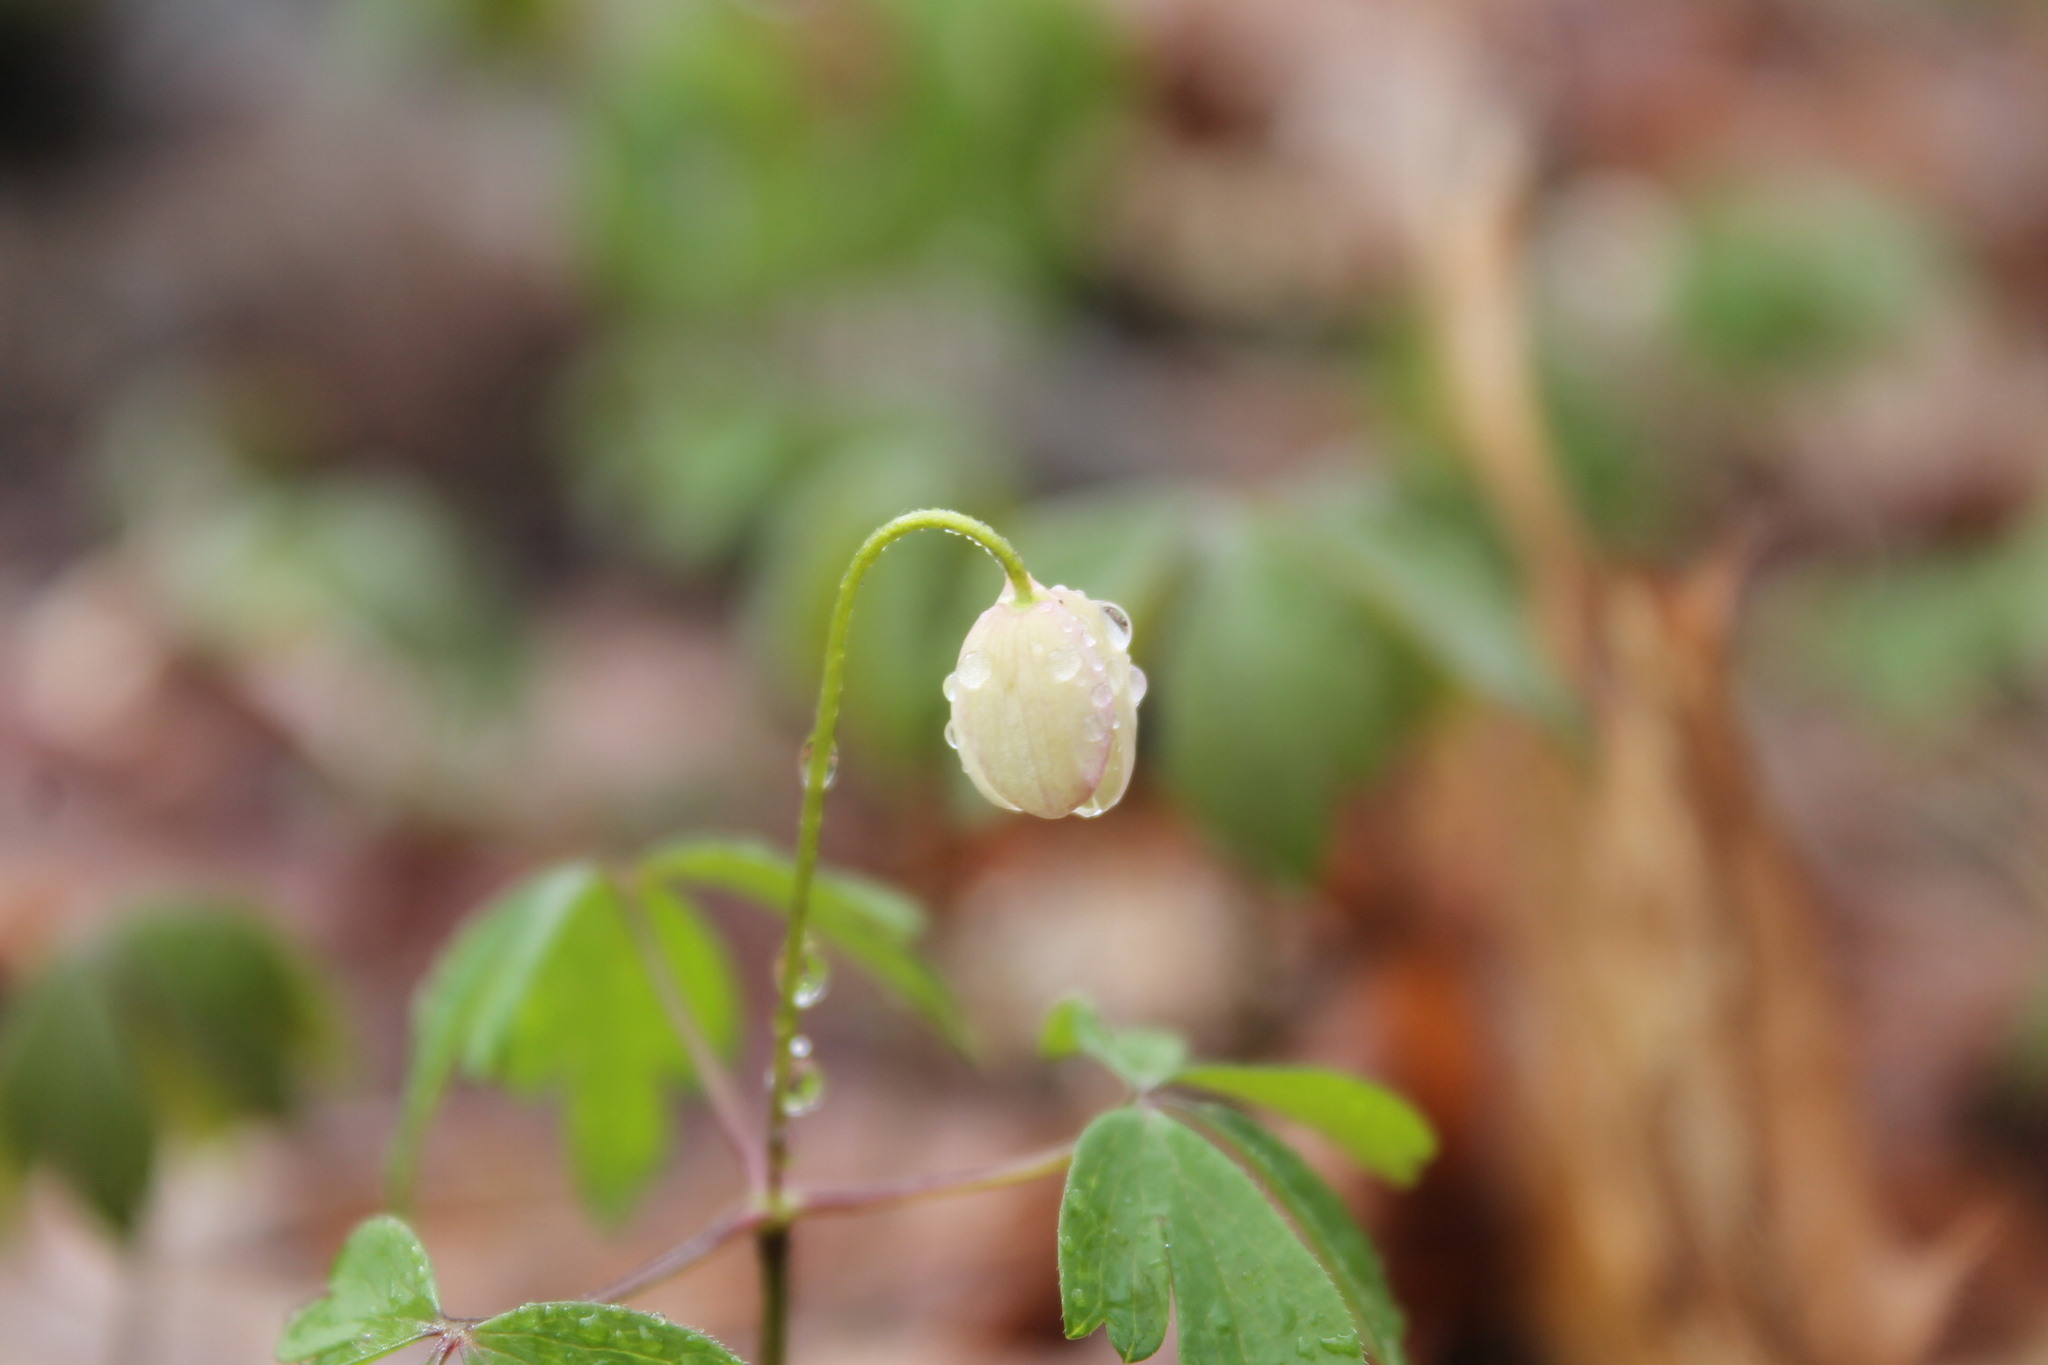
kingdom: Plantae
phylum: Tracheophyta
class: Magnoliopsida
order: Ranunculales
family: Ranunculaceae
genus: Anemone
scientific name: Anemone quinquefolia
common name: Wood anemone
